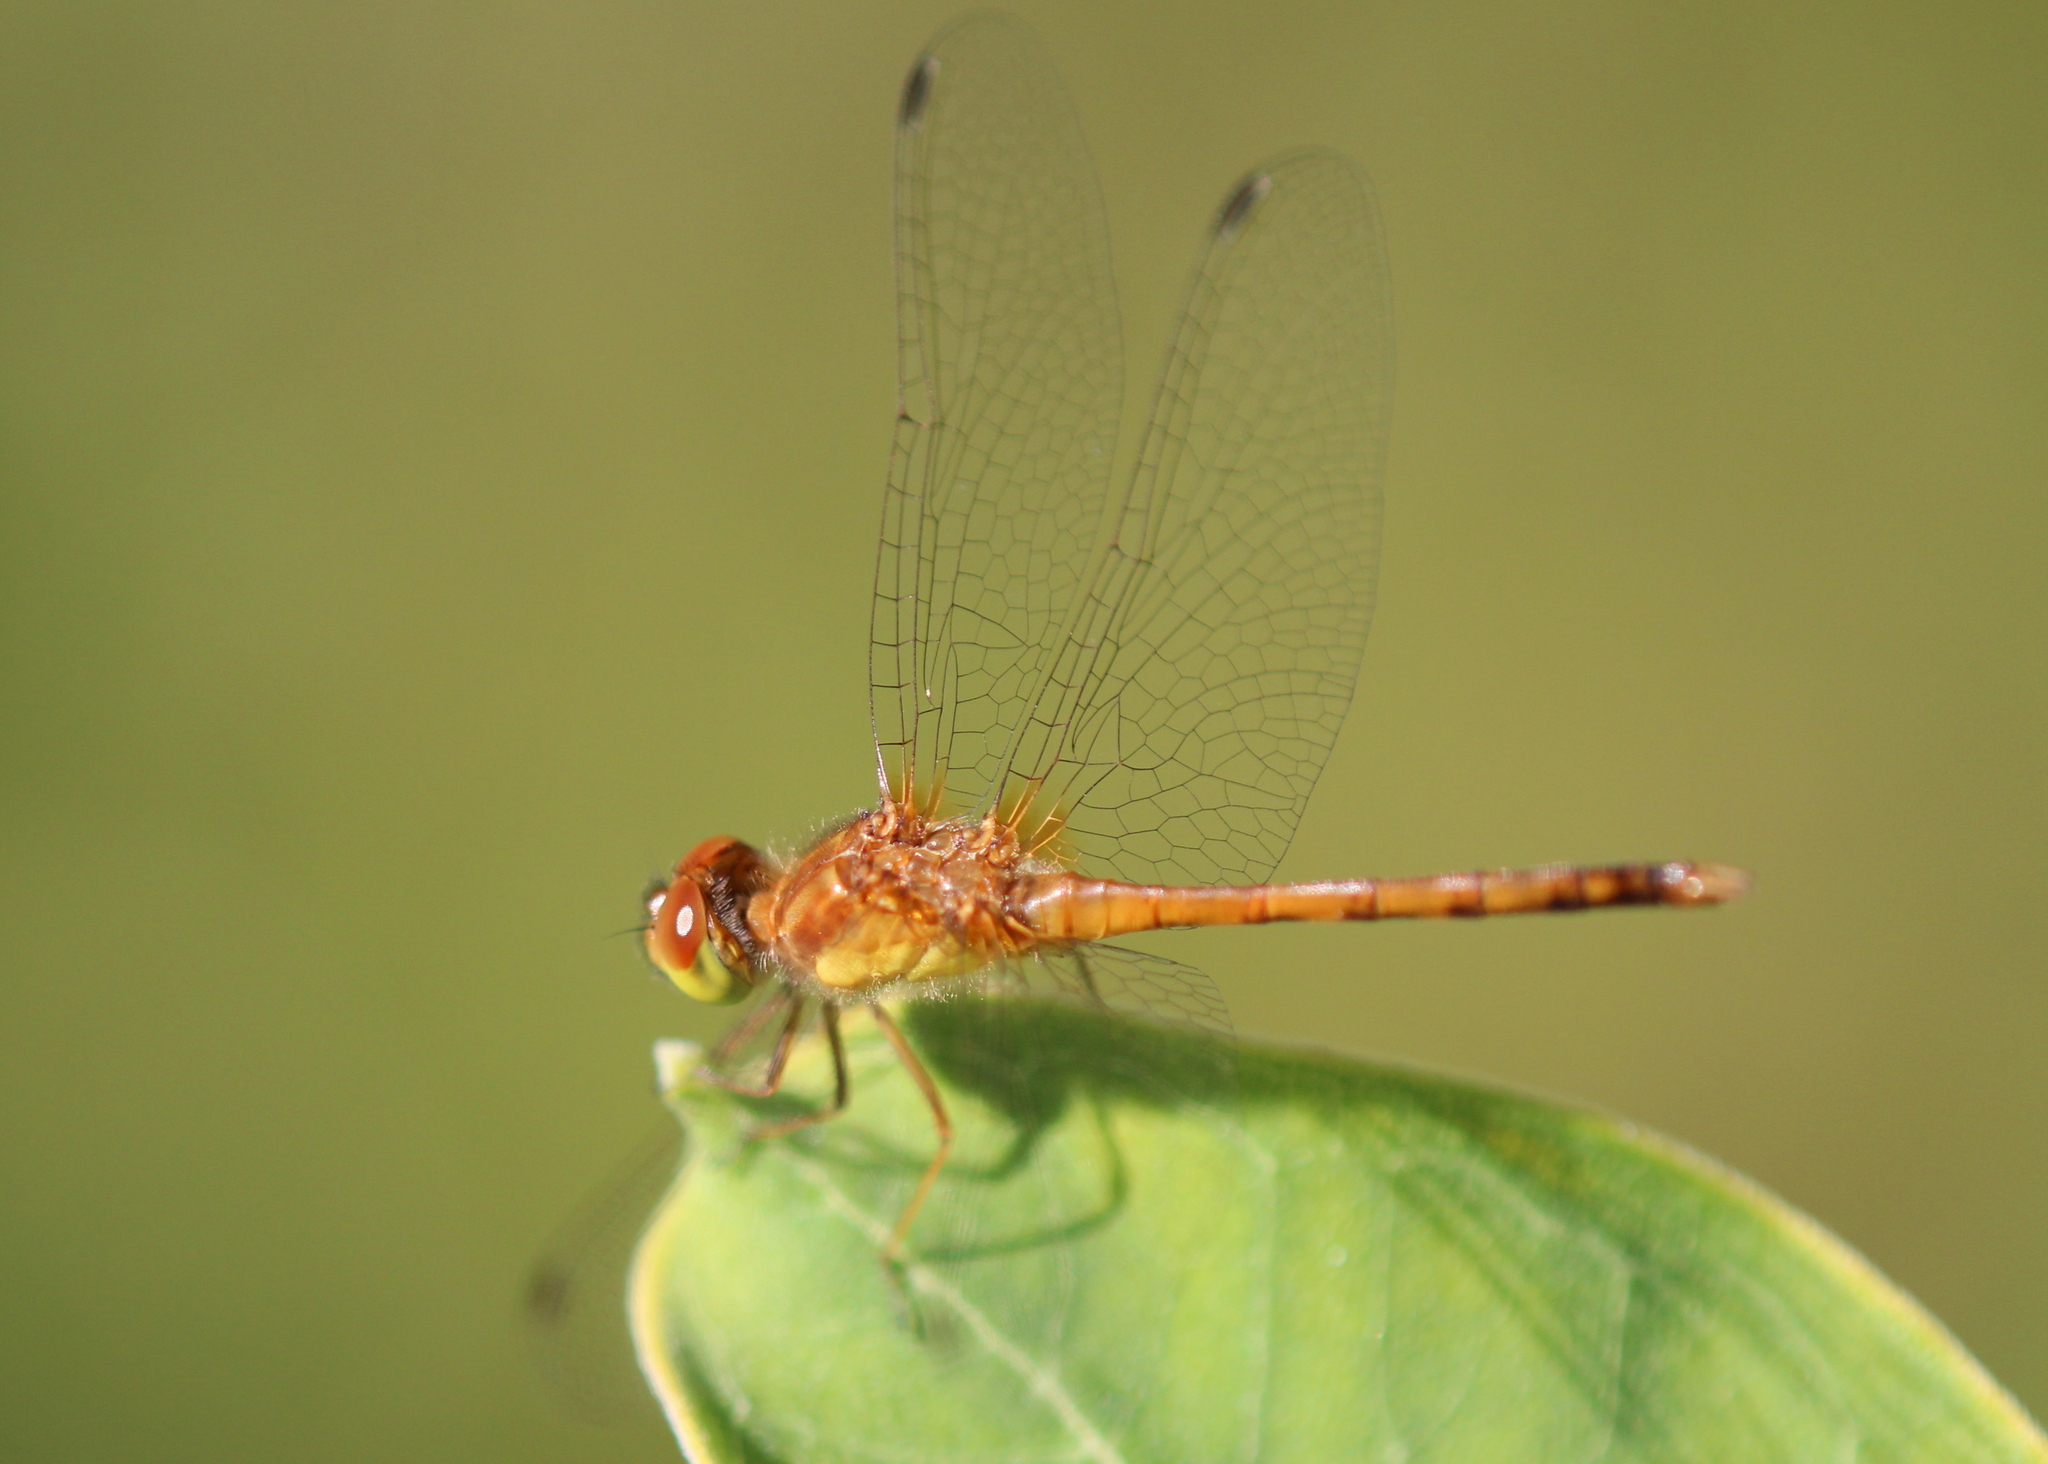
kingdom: Animalia
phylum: Arthropoda
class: Insecta
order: Odonata
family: Libellulidae
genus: Sympetrum
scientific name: Sympetrum vicinum
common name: Autumn meadowhawk
